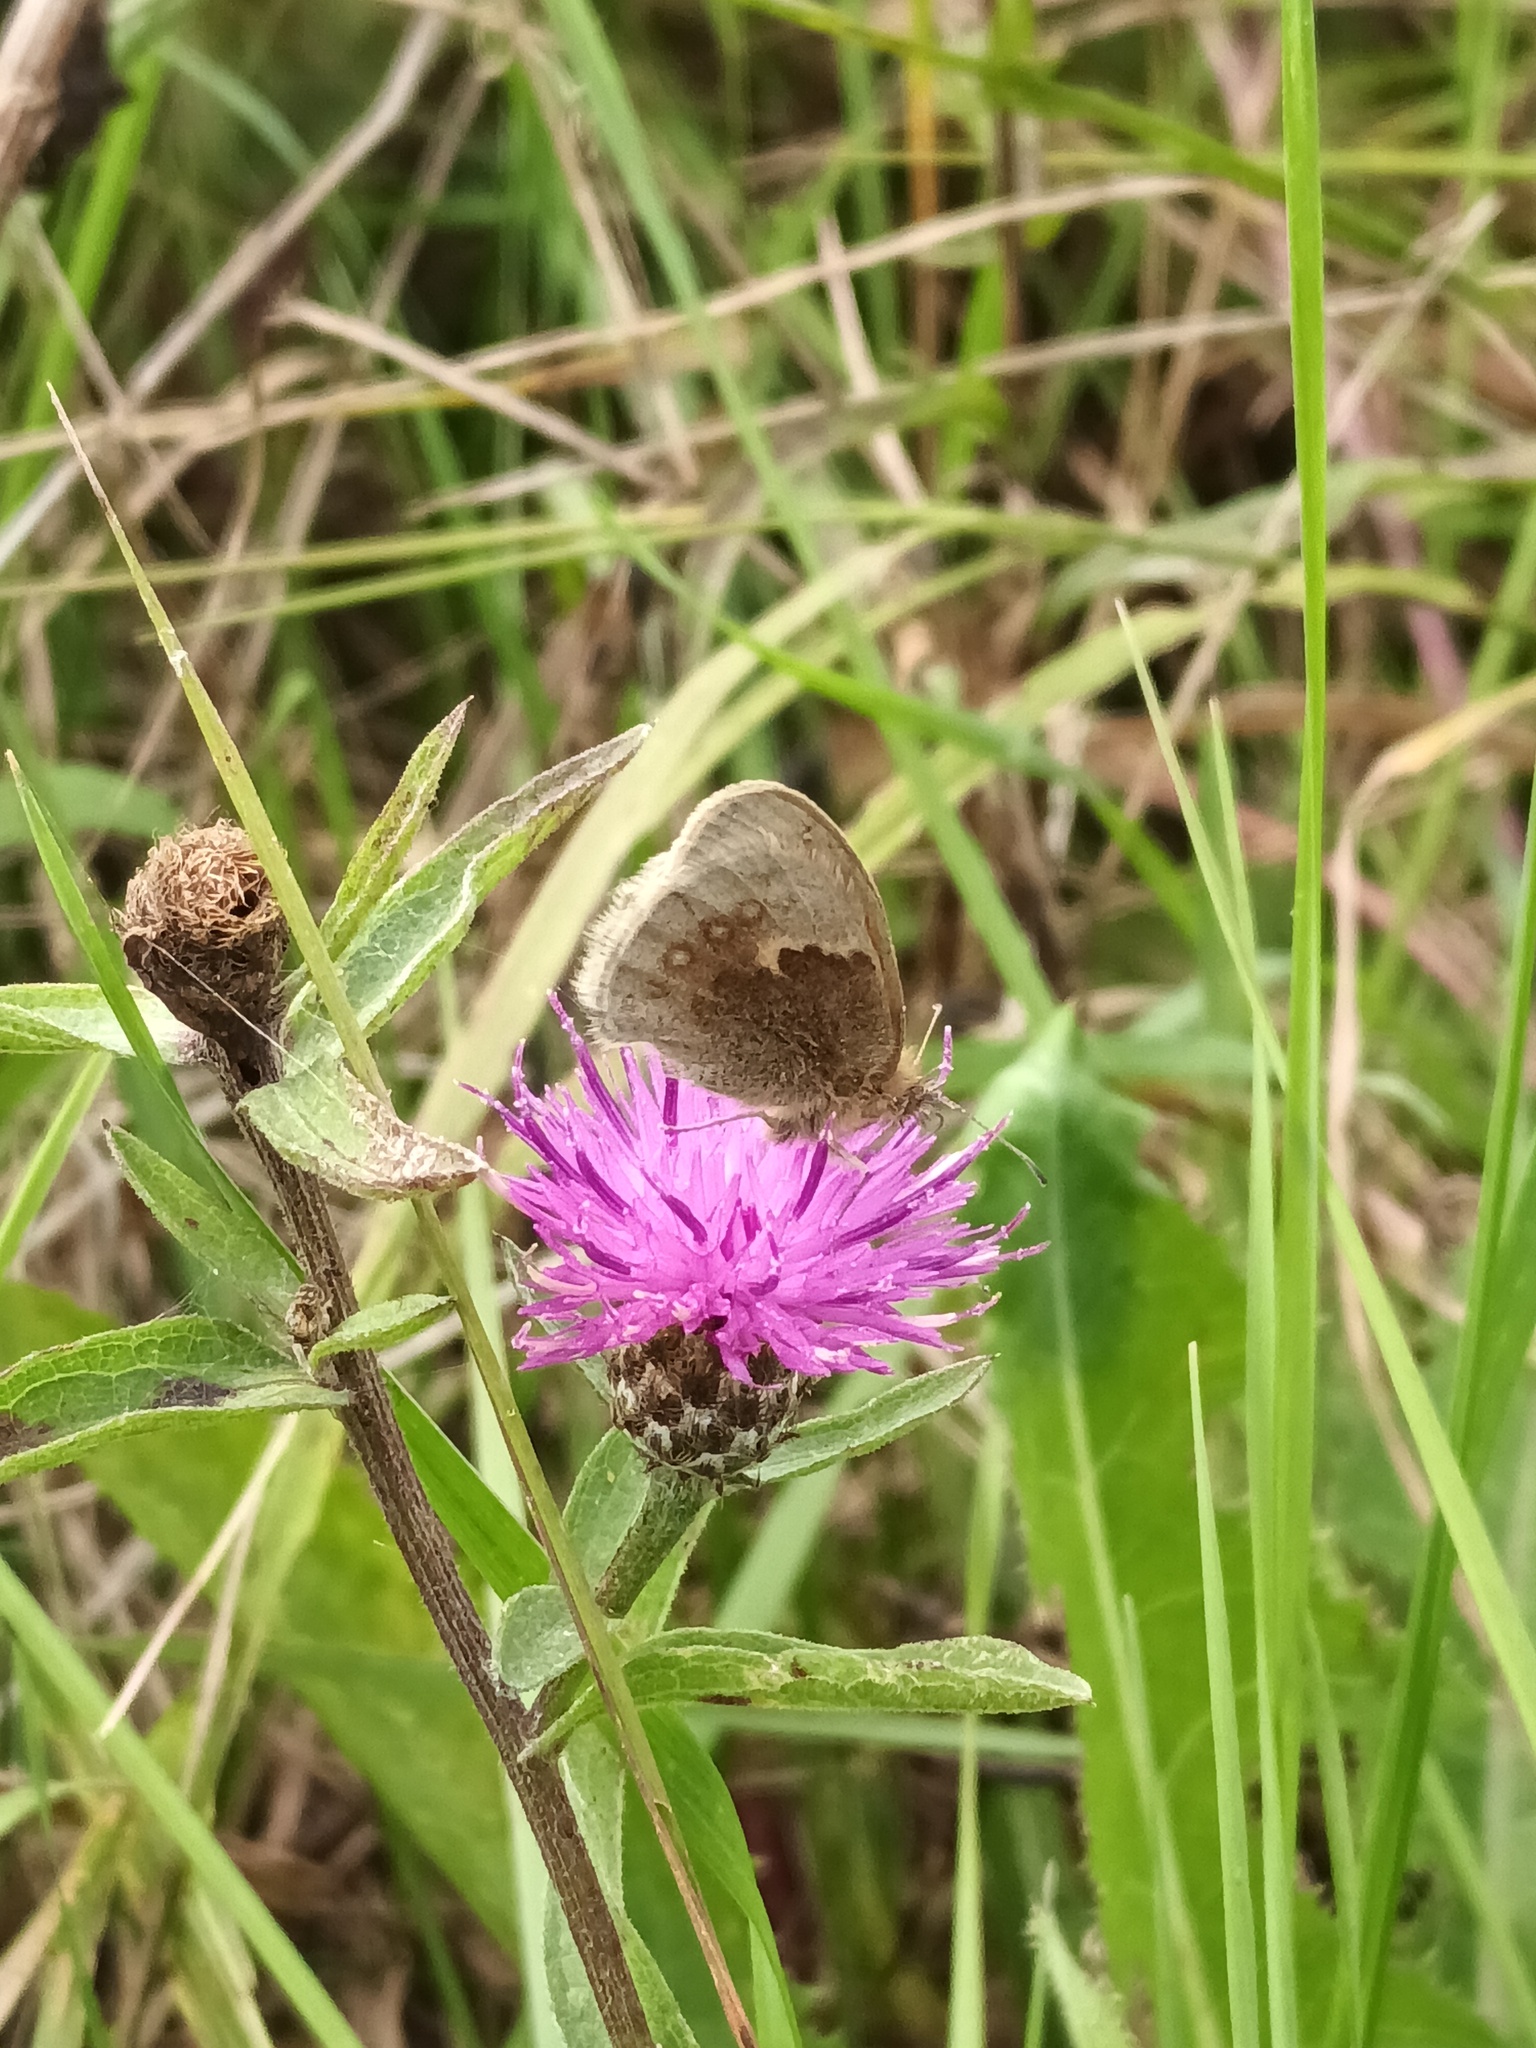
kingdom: Animalia
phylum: Arthropoda
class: Insecta
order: Lepidoptera
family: Nymphalidae
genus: Coenonympha
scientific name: Coenonympha pamphilus
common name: Small heath
